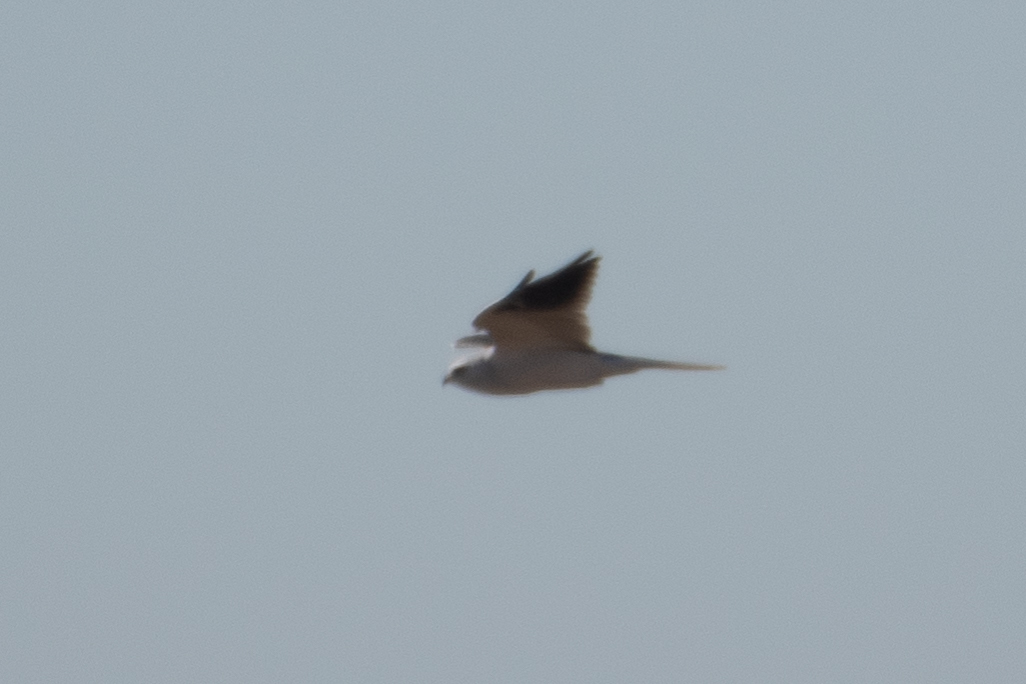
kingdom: Animalia
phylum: Chordata
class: Aves
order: Accipitriformes
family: Accipitridae
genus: Elanus
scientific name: Elanus leucurus
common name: White-tailed kite
